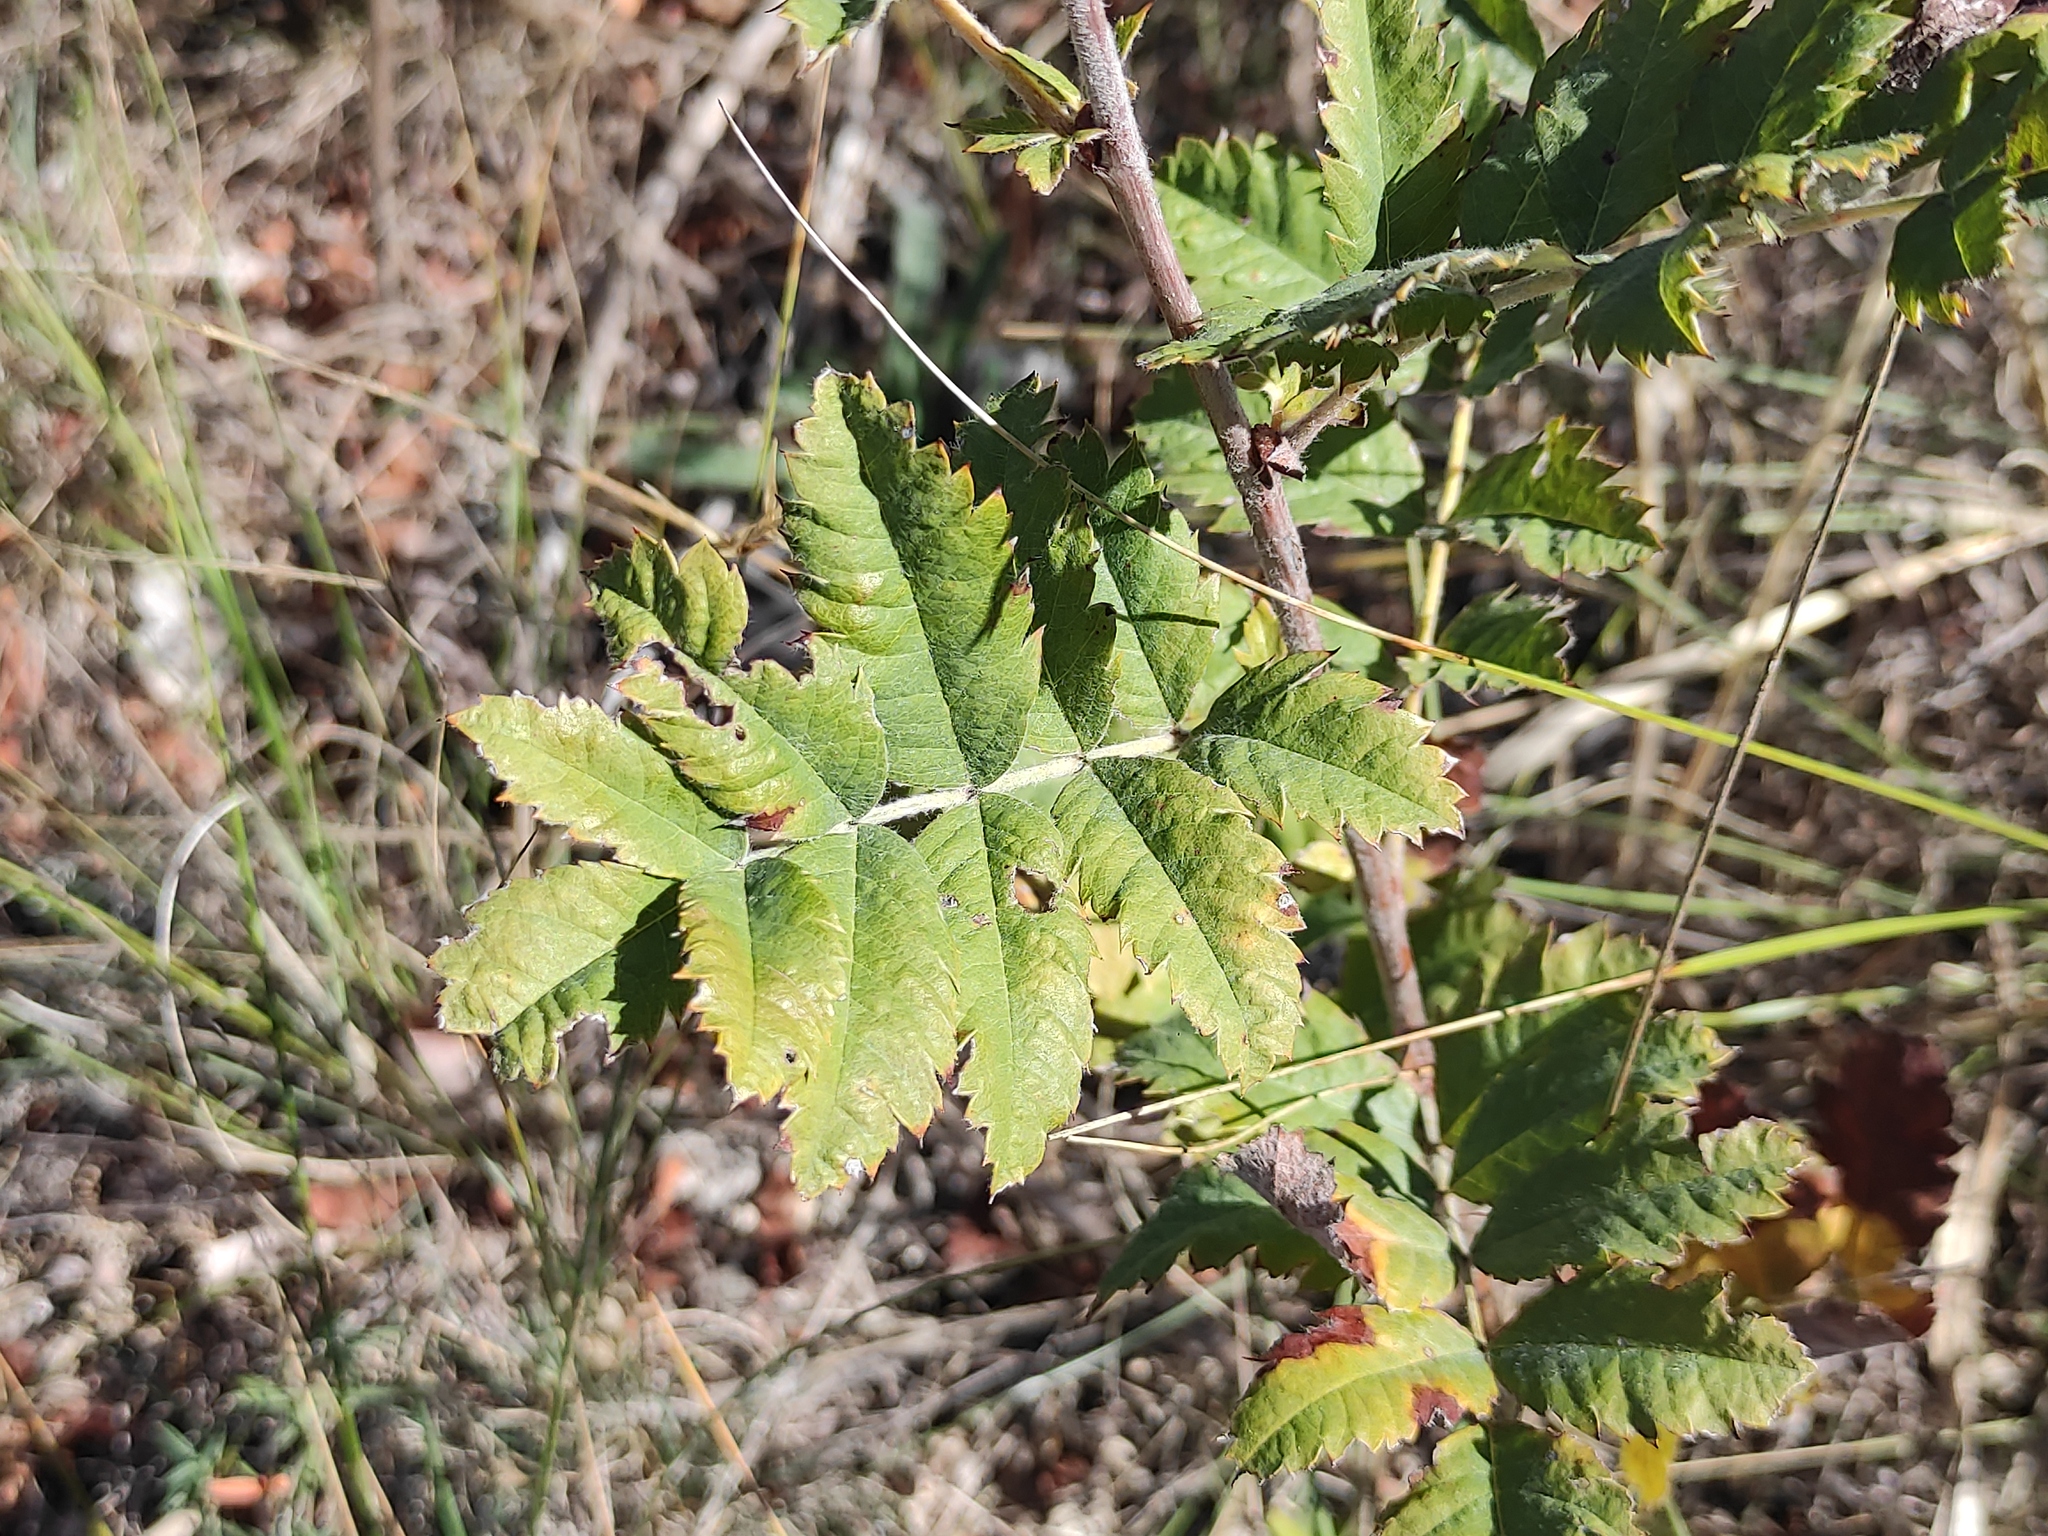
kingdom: Plantae
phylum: Tracheophyta
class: Magnoliopsida
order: Rosales
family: Rosaceae
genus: Cormus
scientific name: Cormus domestica
